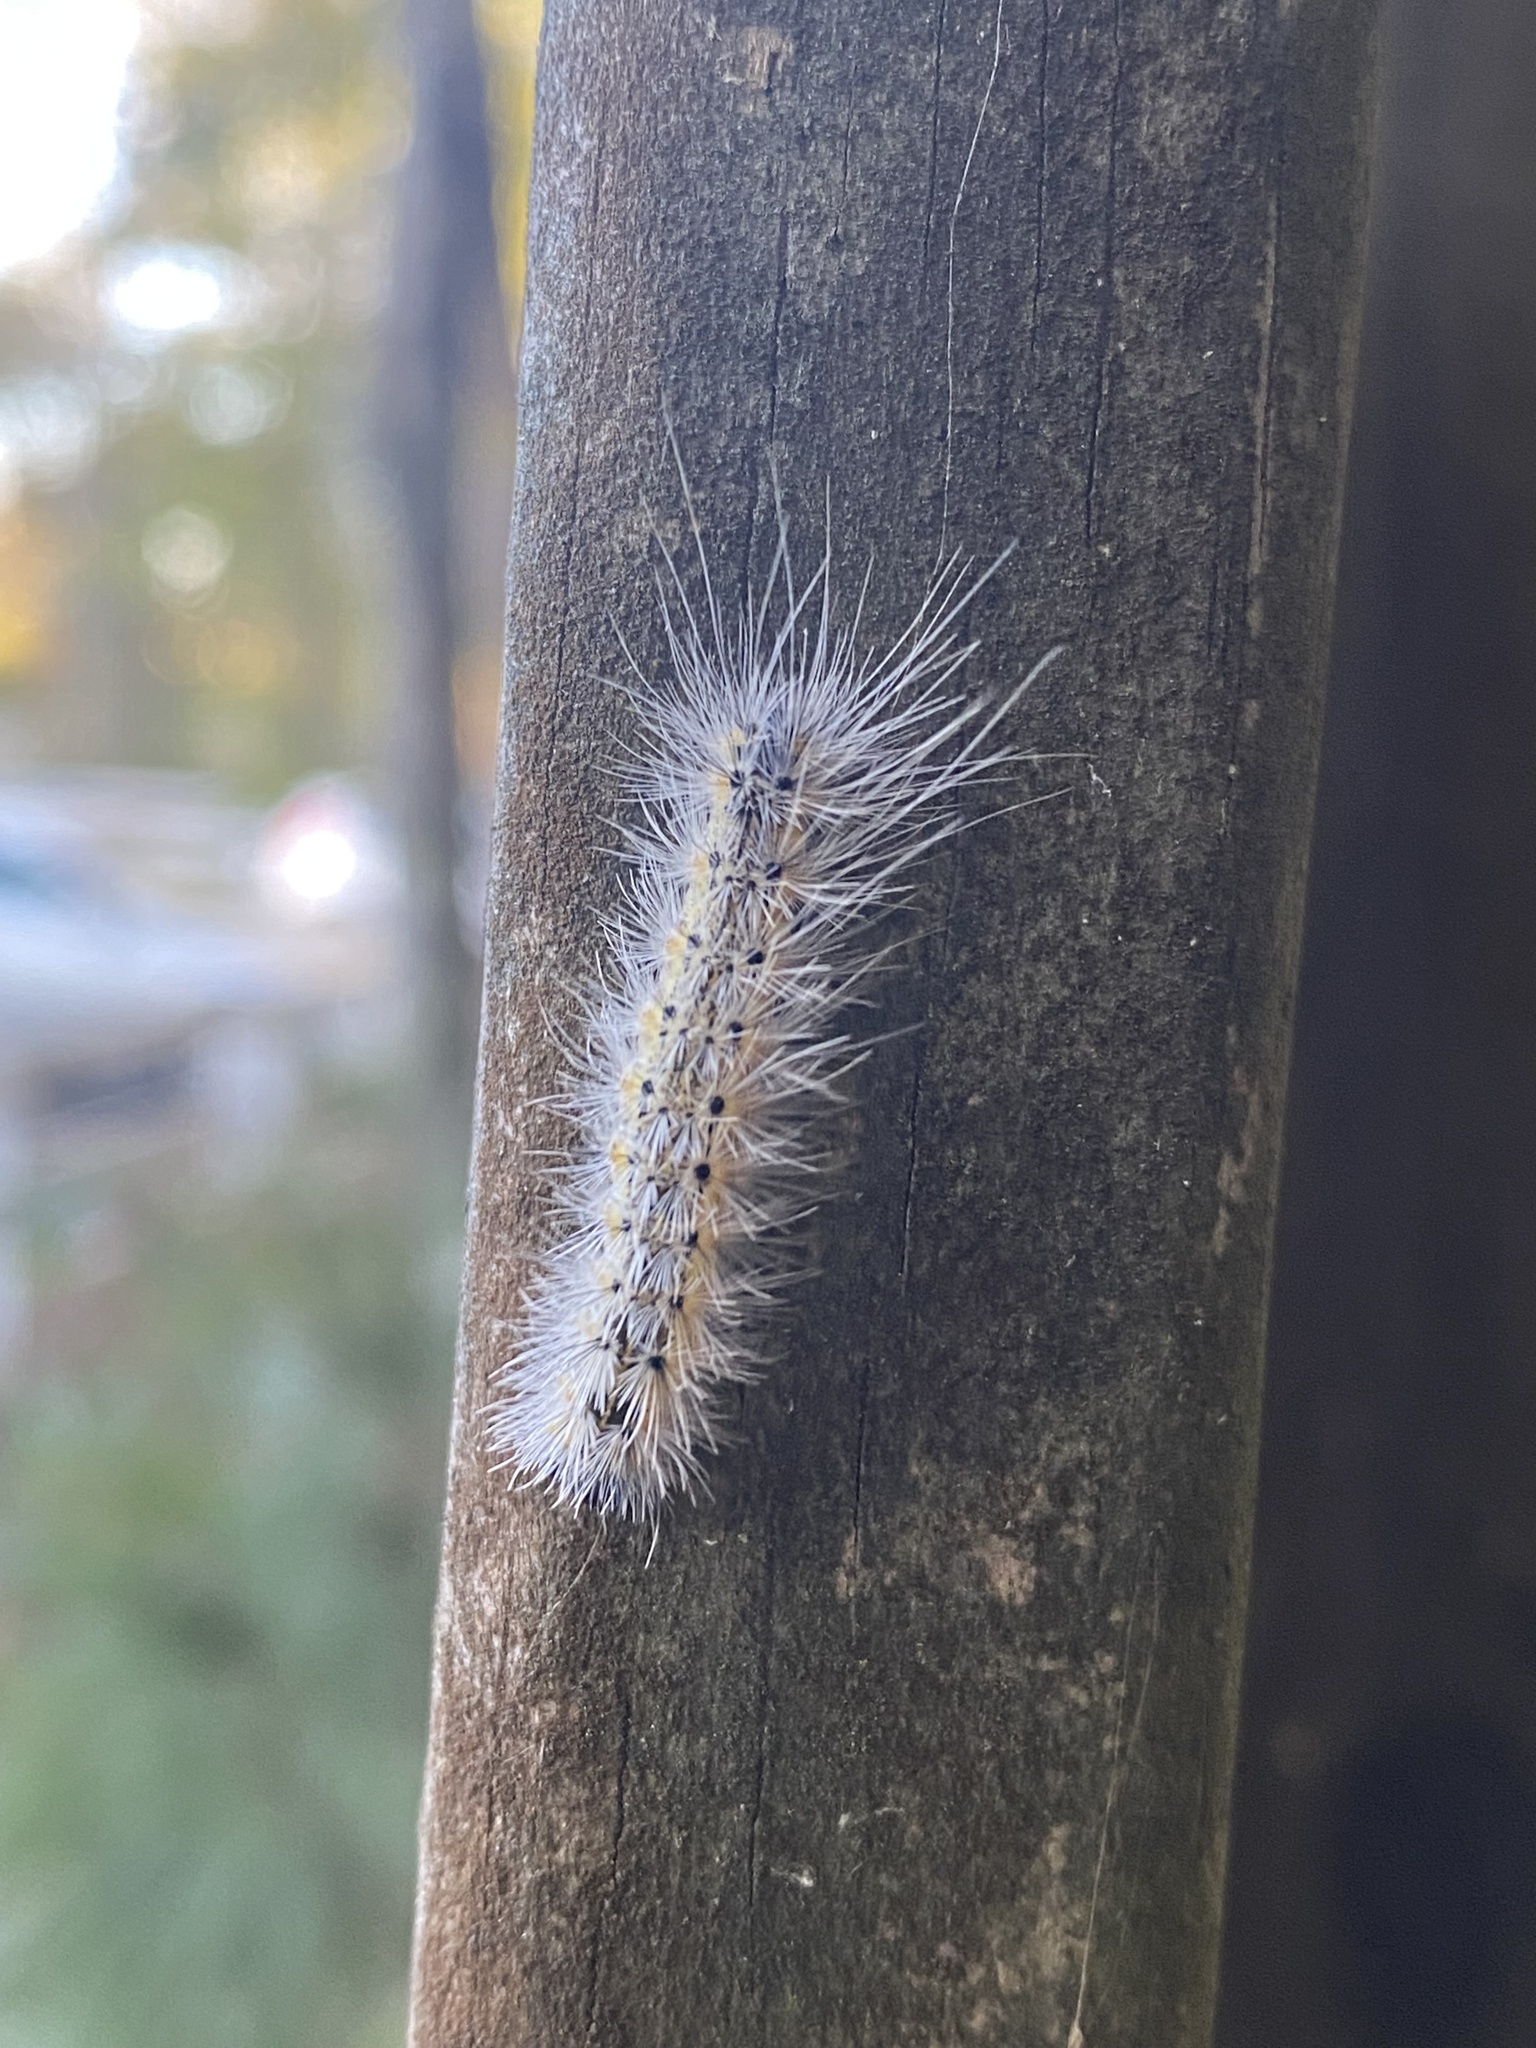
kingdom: Animalia
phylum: Arthropoda
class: Insecta
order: Lepidoptera
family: Erebidae
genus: Hyphantria
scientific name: Hyphantria cunea
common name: American white moth
